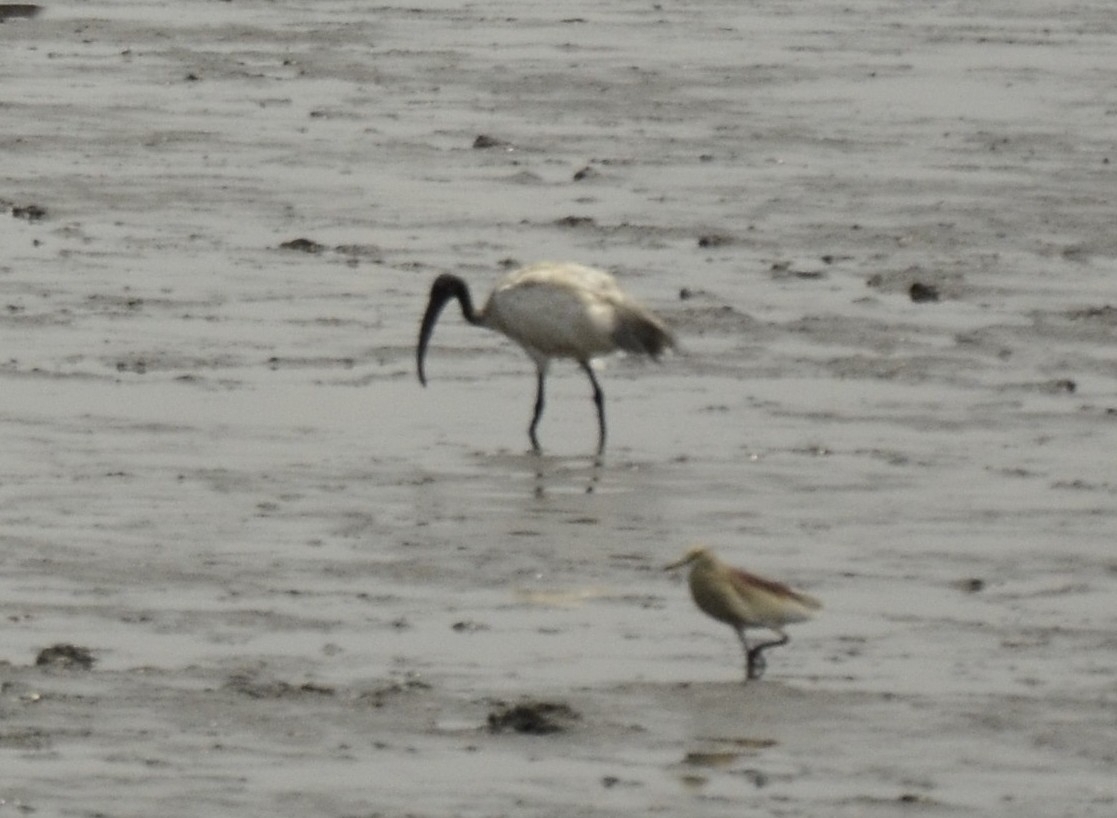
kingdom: Animalia
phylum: Chordata
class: Aves
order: Pelecaniformes
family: Threskiornithidae
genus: Threskiornis
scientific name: Threskiornis melanocephalus
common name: Black-headed ibis
